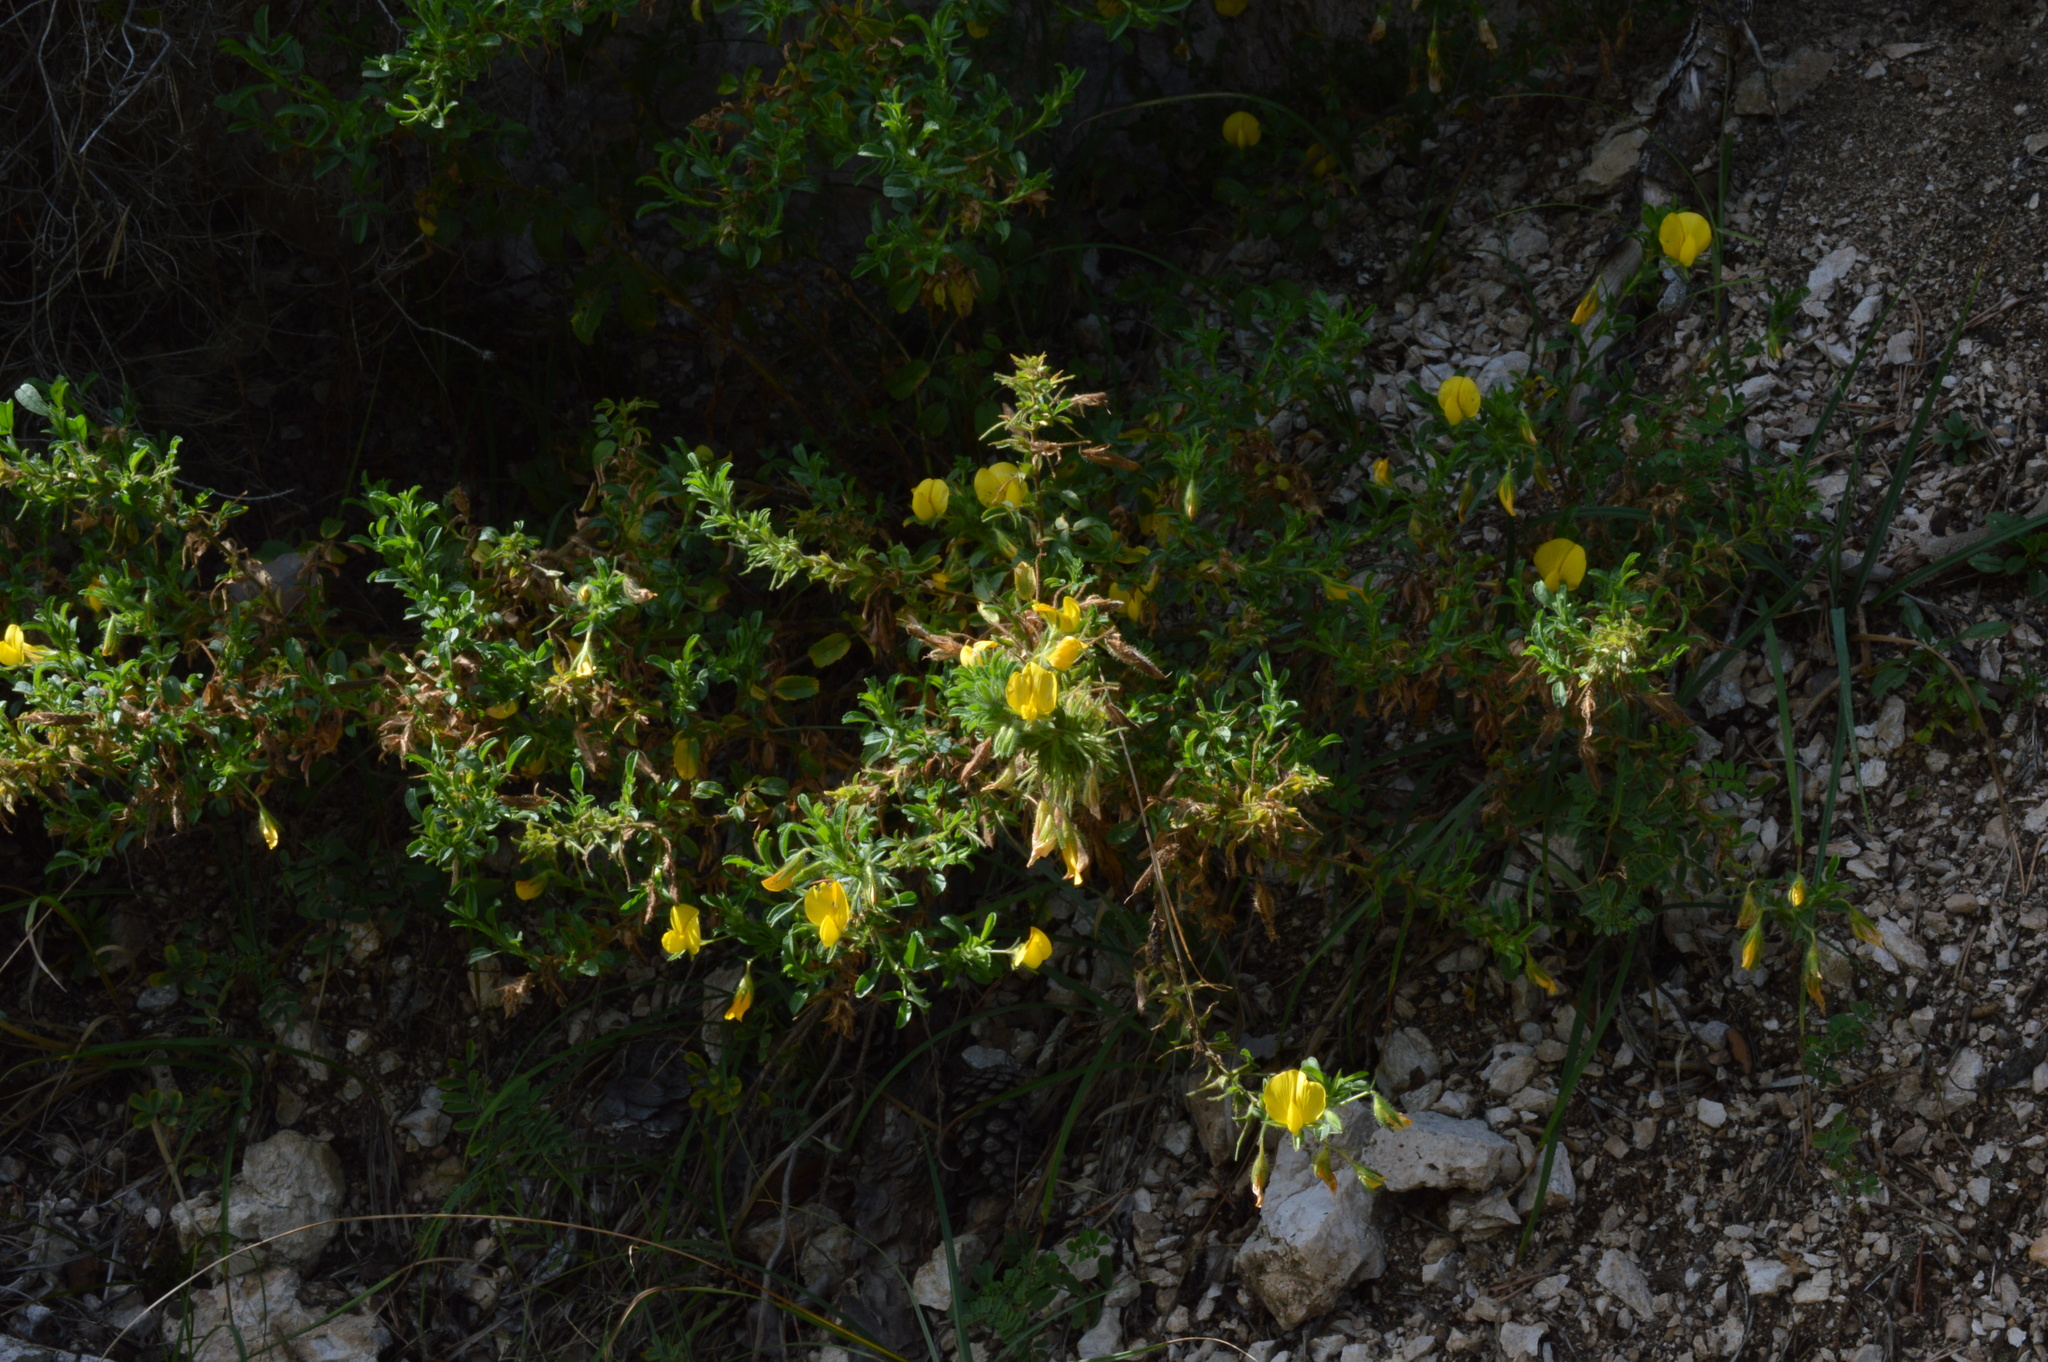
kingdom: Plantae
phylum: Tracheophyta
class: Magnoliopsida
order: Fabales
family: Fabaceae
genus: Ononis
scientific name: Ononis natrix
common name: Yellow restharrow
